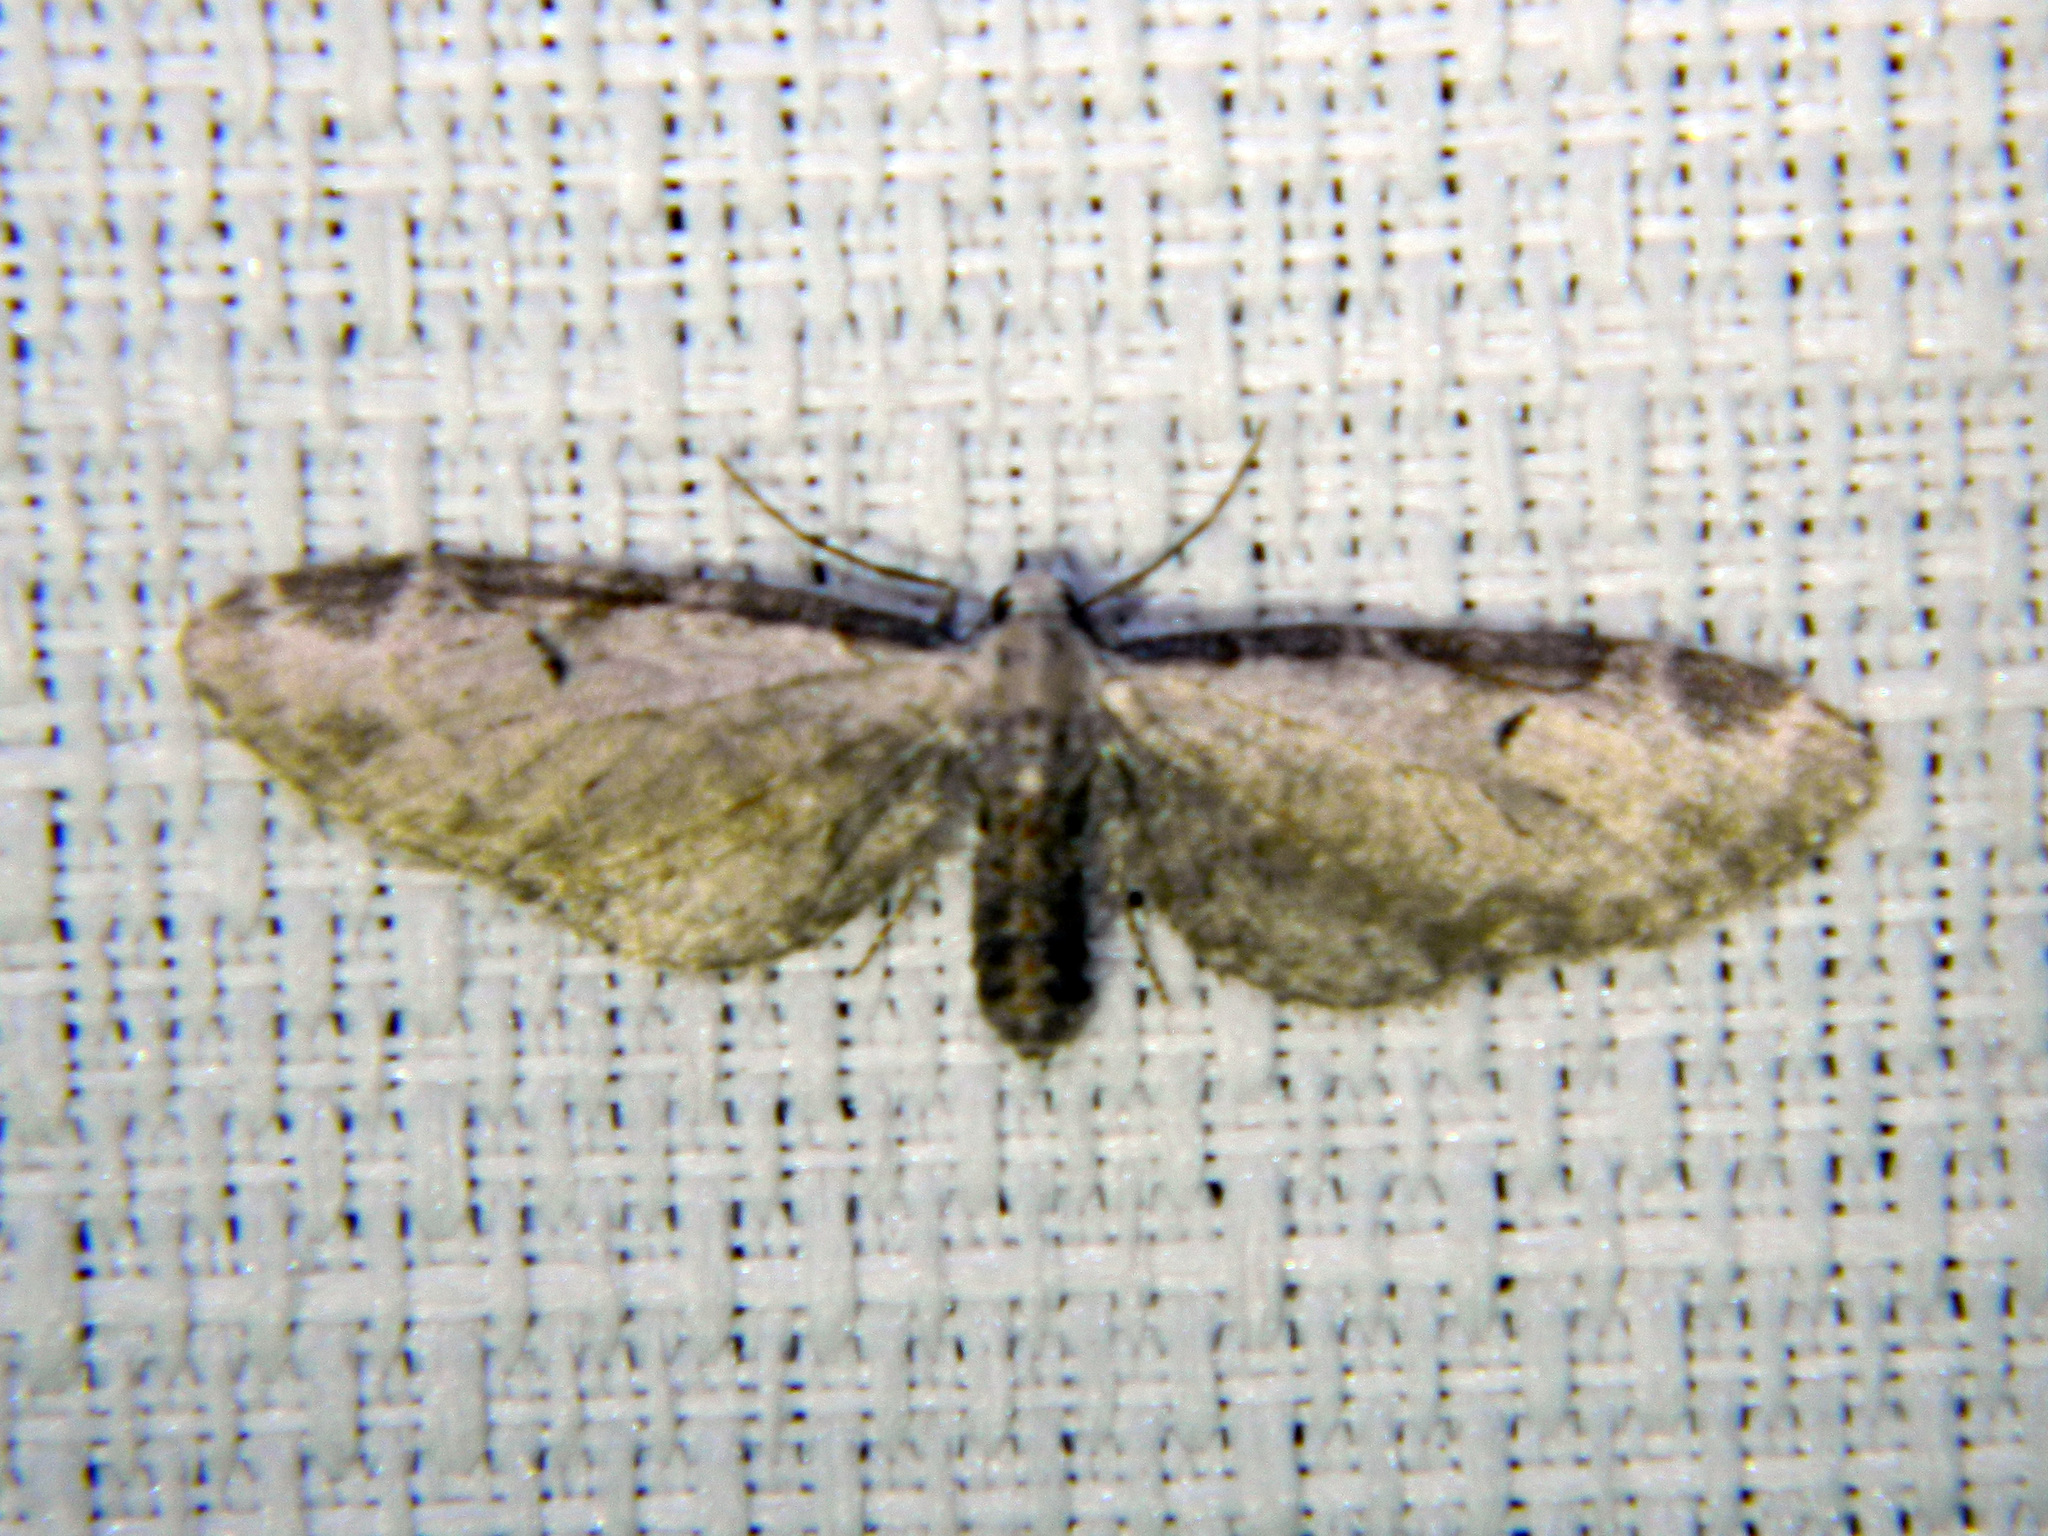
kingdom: Animalia
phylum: Arthropoda
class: Insecta
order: Lepidoptera
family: Geometridae
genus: Eupithecia
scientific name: Eupithecia ravocostaliata
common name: Great varigated pug
